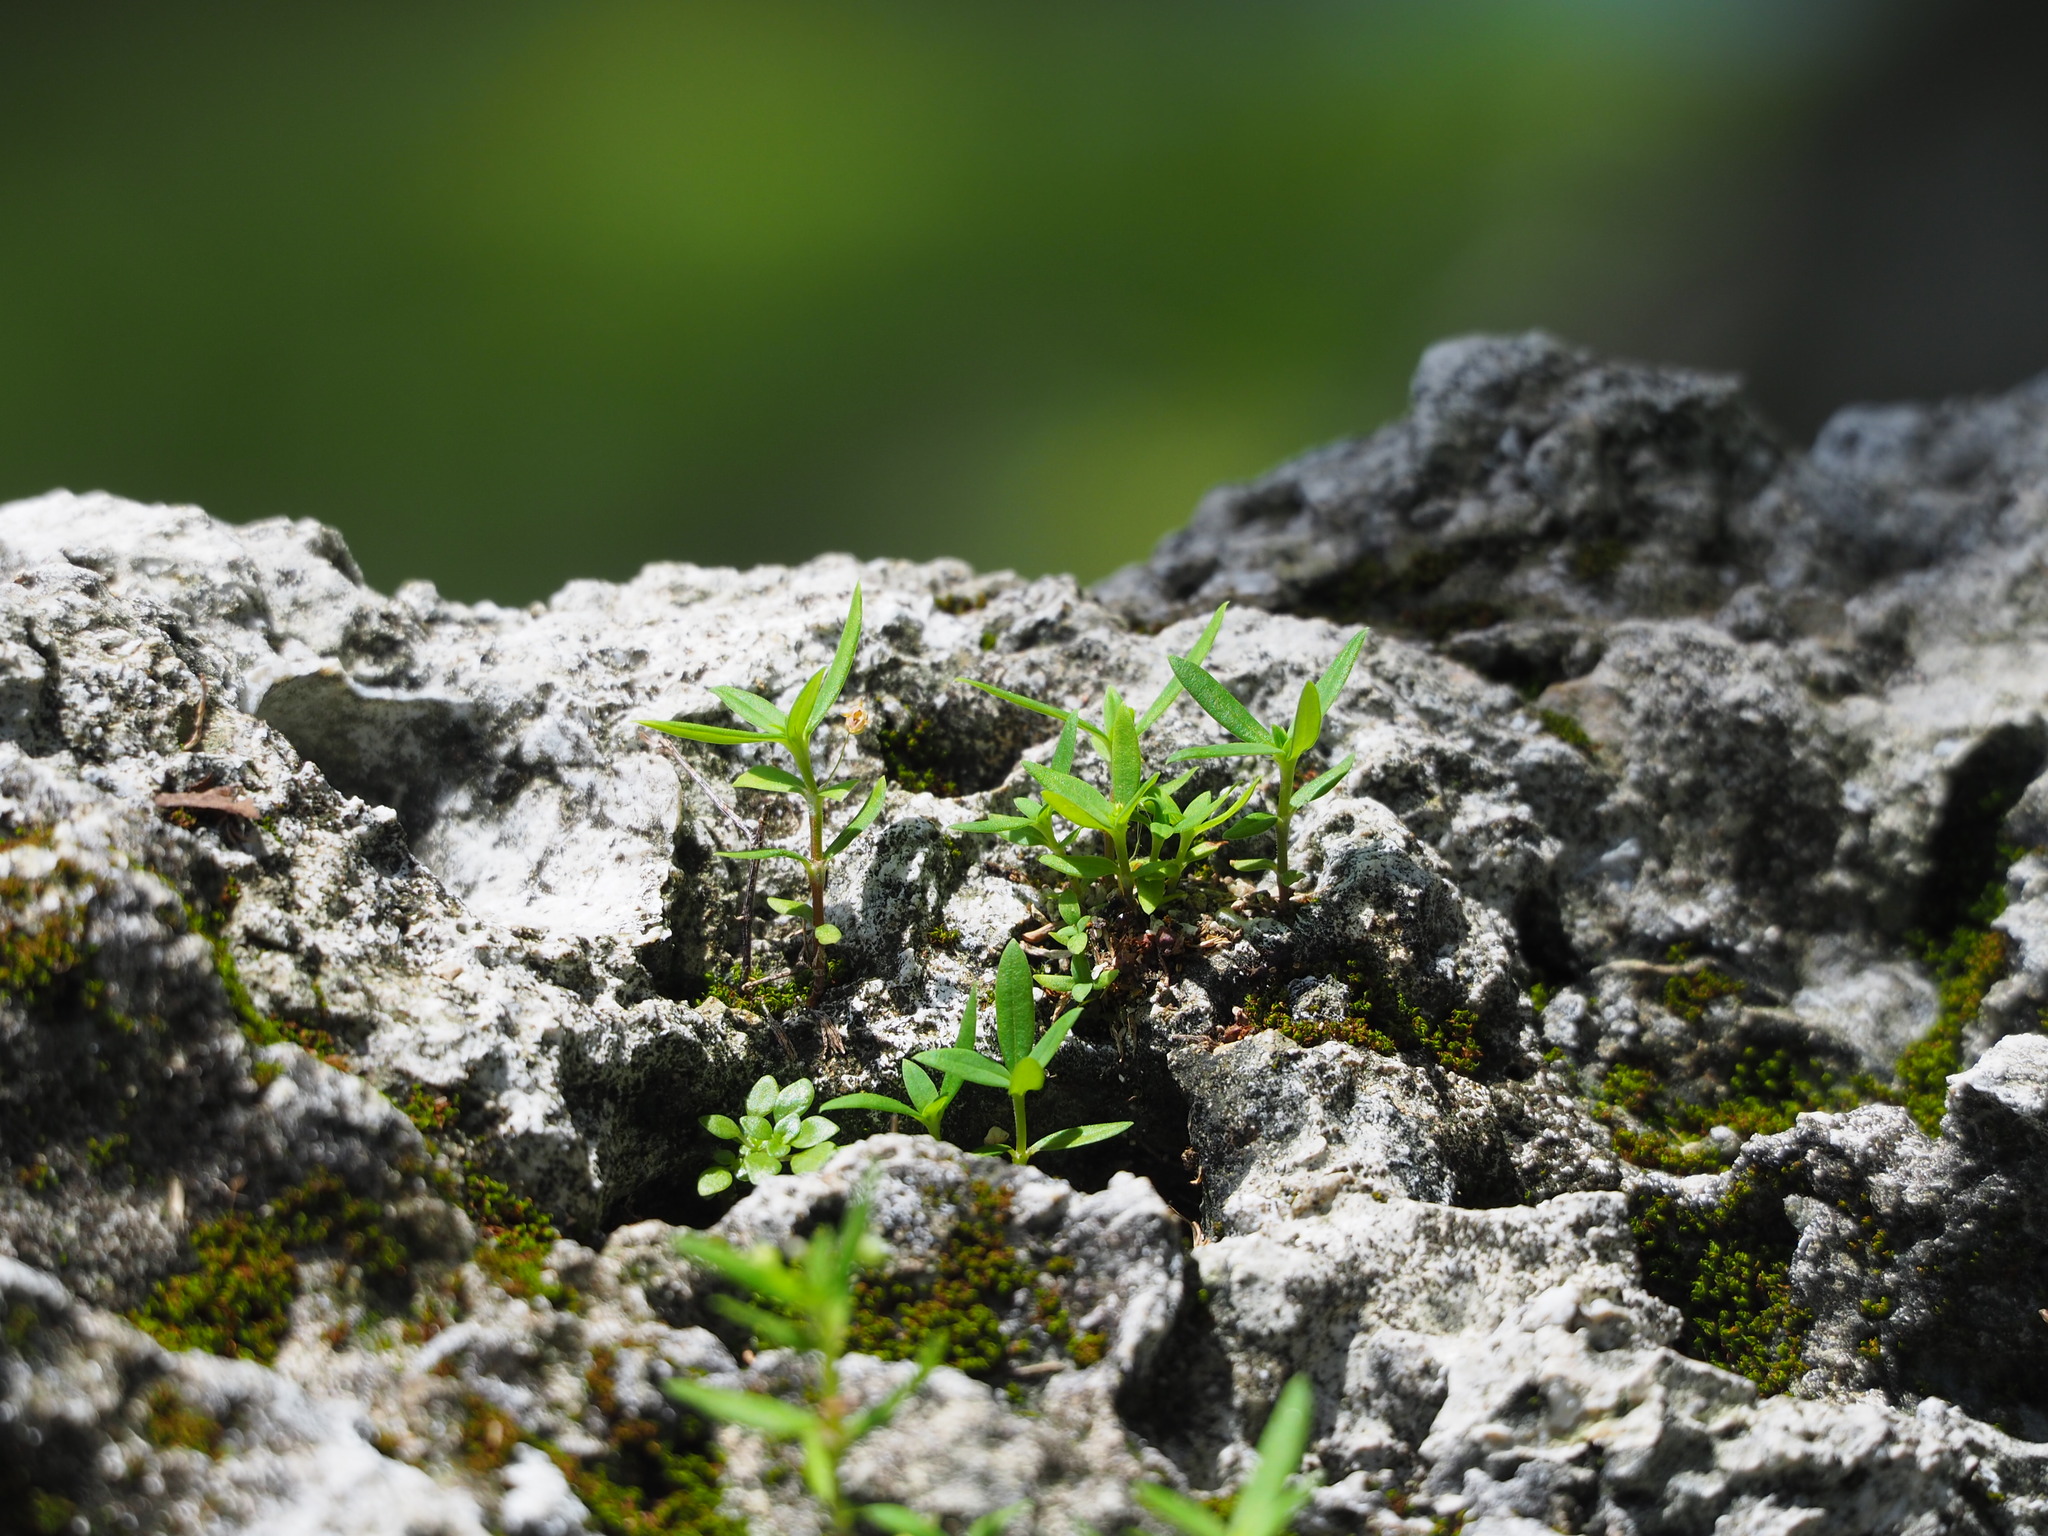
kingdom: Plantae
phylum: Tracheophyta
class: Magnoliopsida
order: Gentianales
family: Rubiaceae
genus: Oldenlandia
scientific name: Oldenlandia corymbosa
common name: Flat-top mille graines
